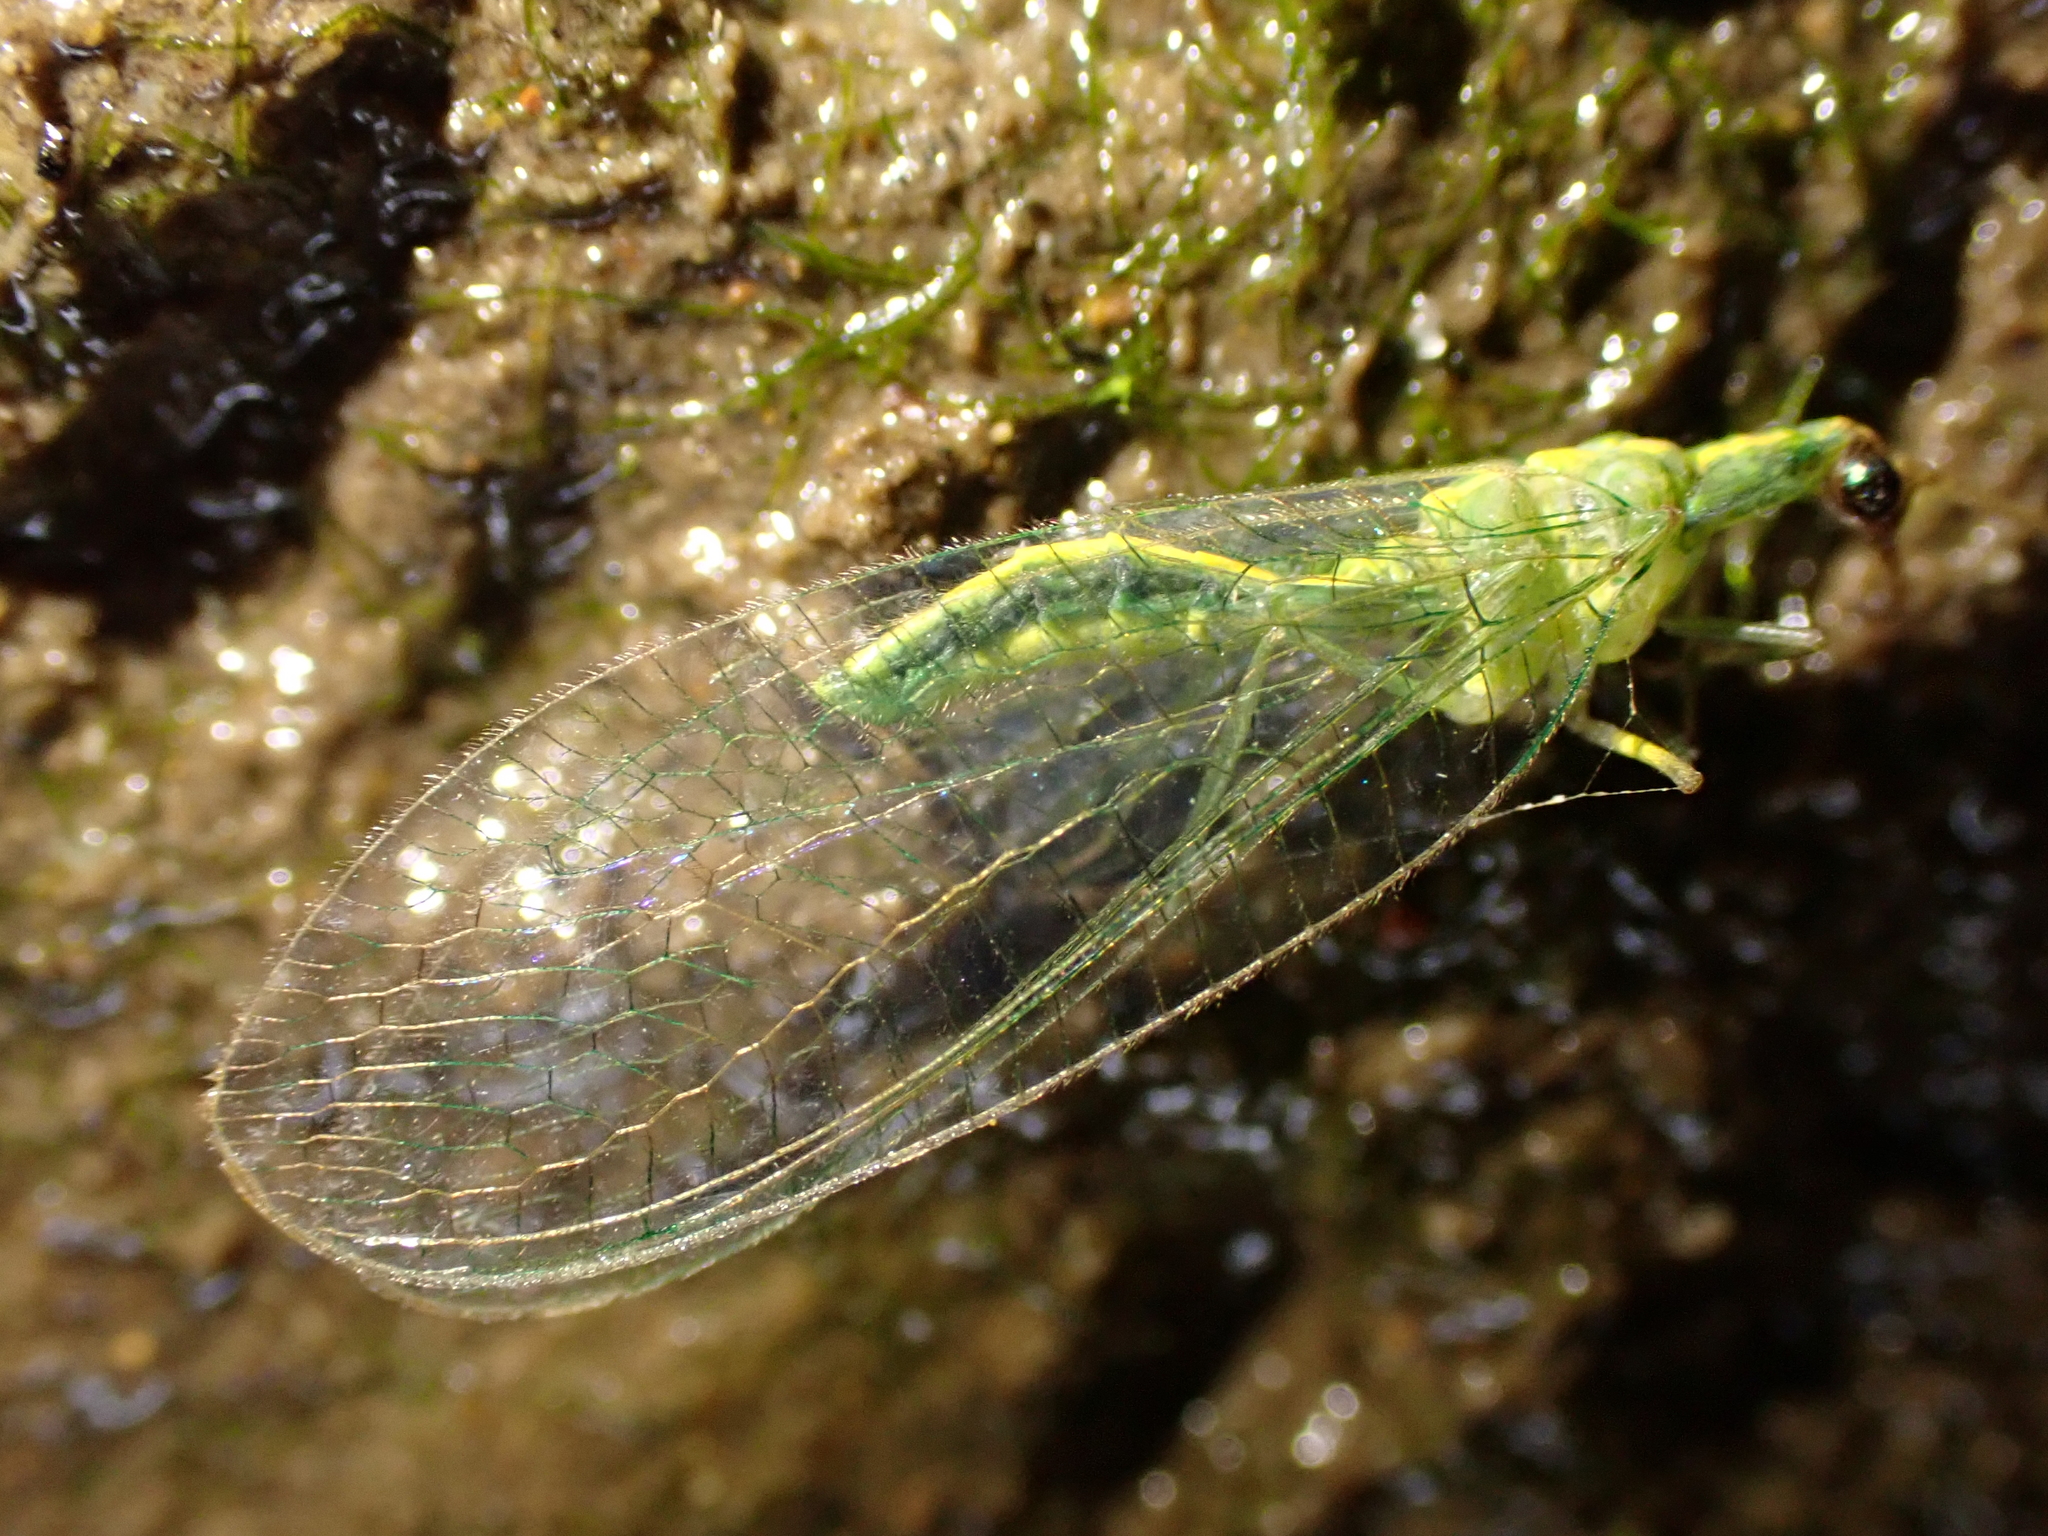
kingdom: Animalia
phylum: Arthropoda
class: Insecta
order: Neuroptera
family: Chrysopidae
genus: Mallada
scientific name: Mallada basalis
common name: Green lacewing
